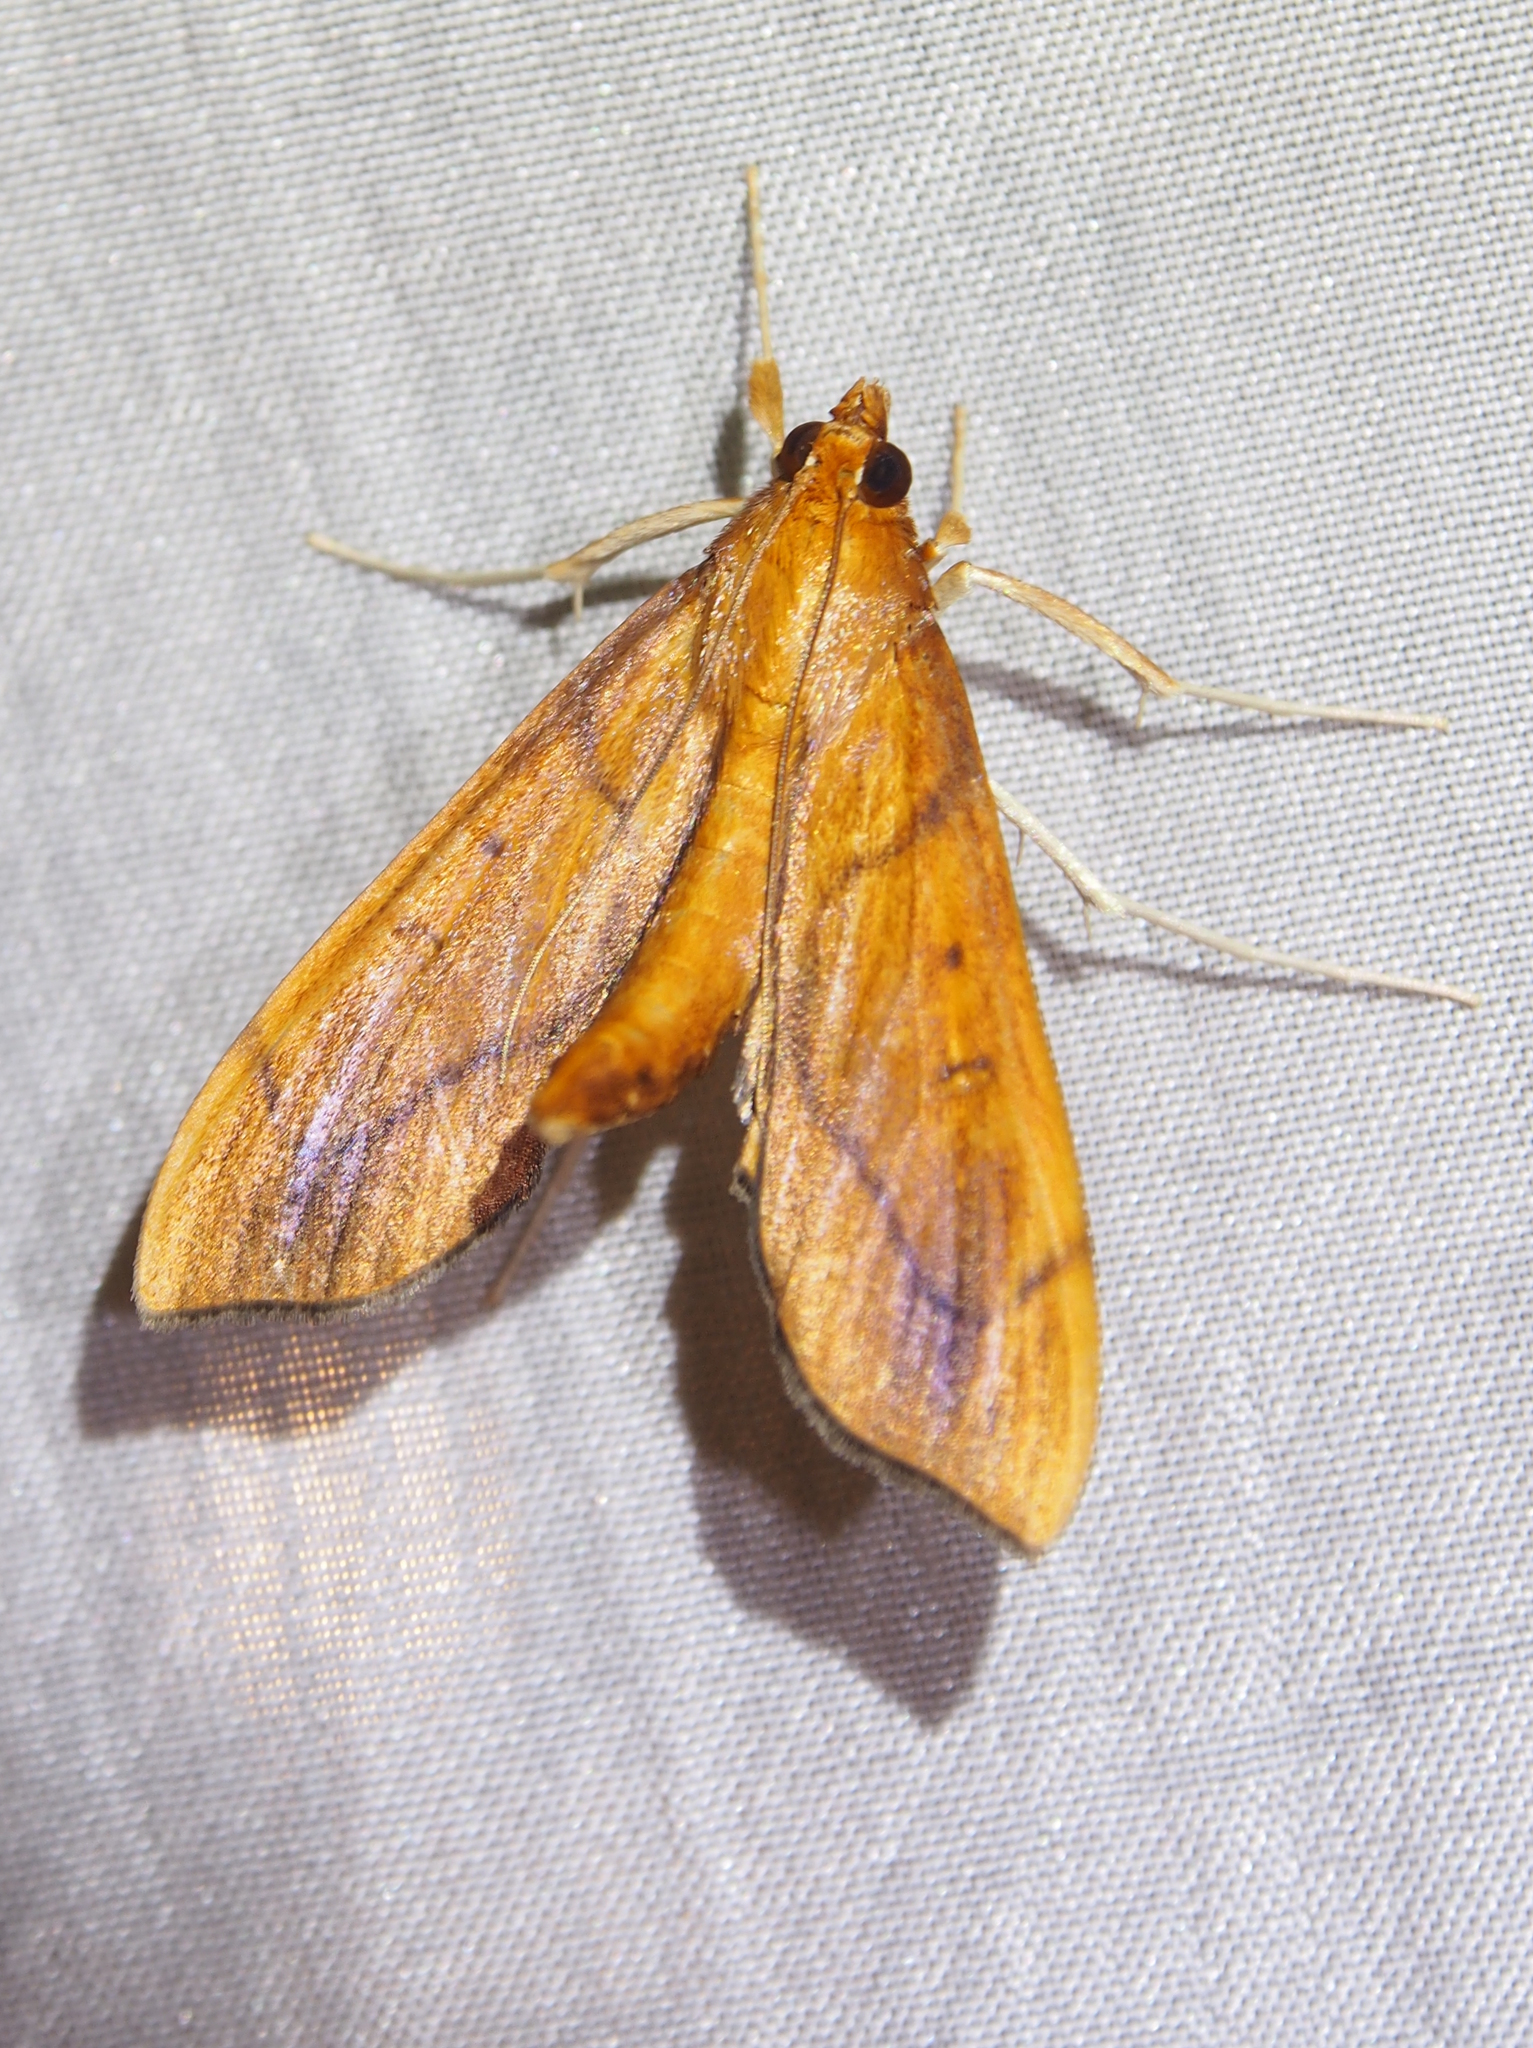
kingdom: Animalia
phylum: Arthropoda
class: Insecta
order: Lepidoptera
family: Crambidae
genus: Anarmodia
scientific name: Anarmodia repandalis
